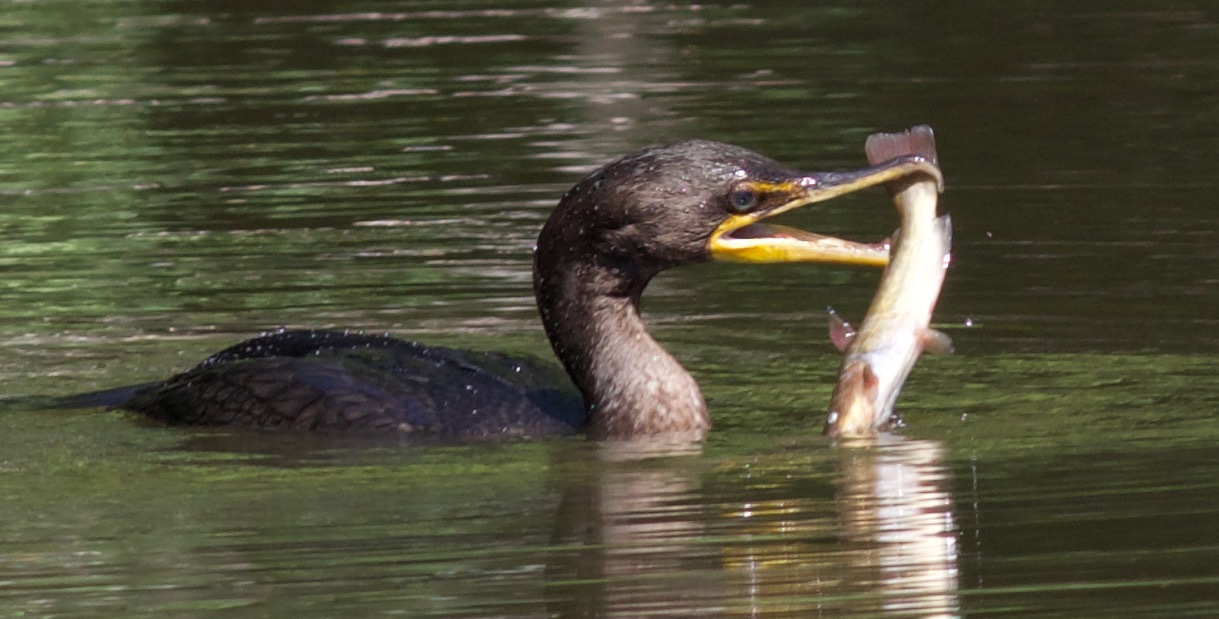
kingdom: Animalia
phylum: Chordata
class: Aves
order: Suliformes
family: Phalacrocoracidae
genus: Phalacrocorax
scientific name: Phalacrocorax auritus
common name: Double-crested cormorant
